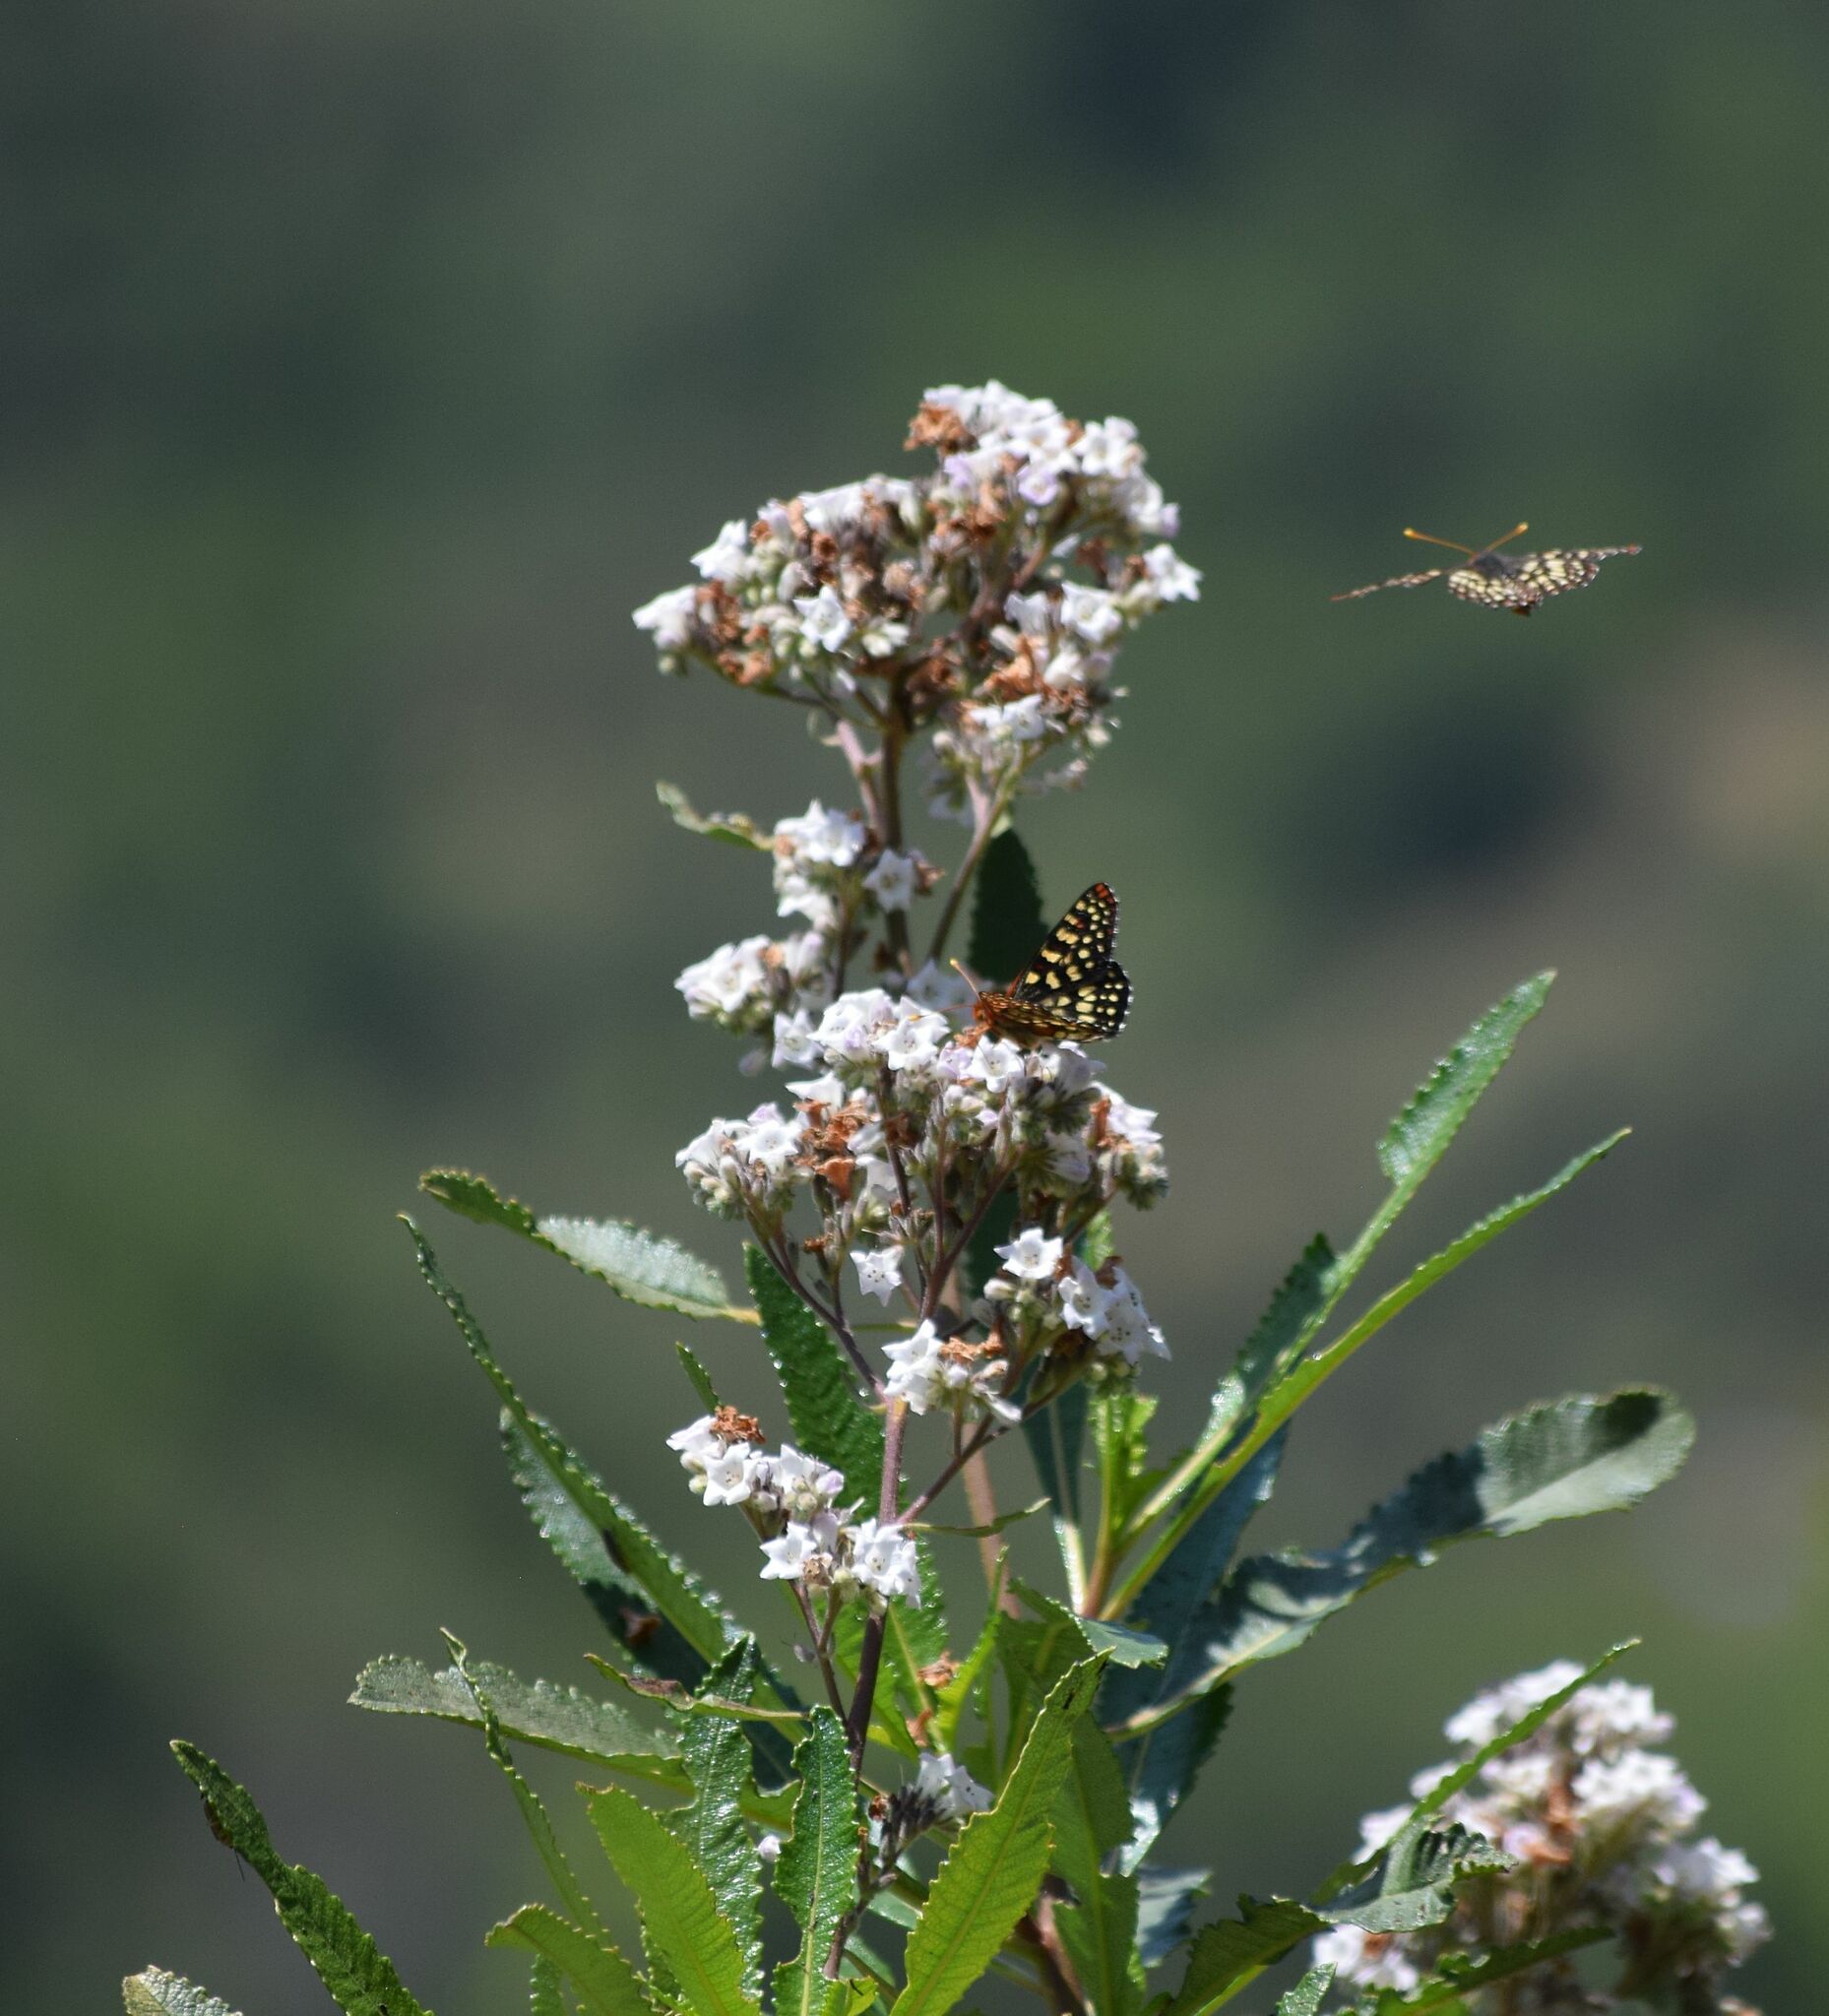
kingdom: Animalia
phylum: Arthropoda
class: Insecta
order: Lepidoptera
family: Nymphalidae
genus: Occidryas
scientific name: Occidryas chalcedona
